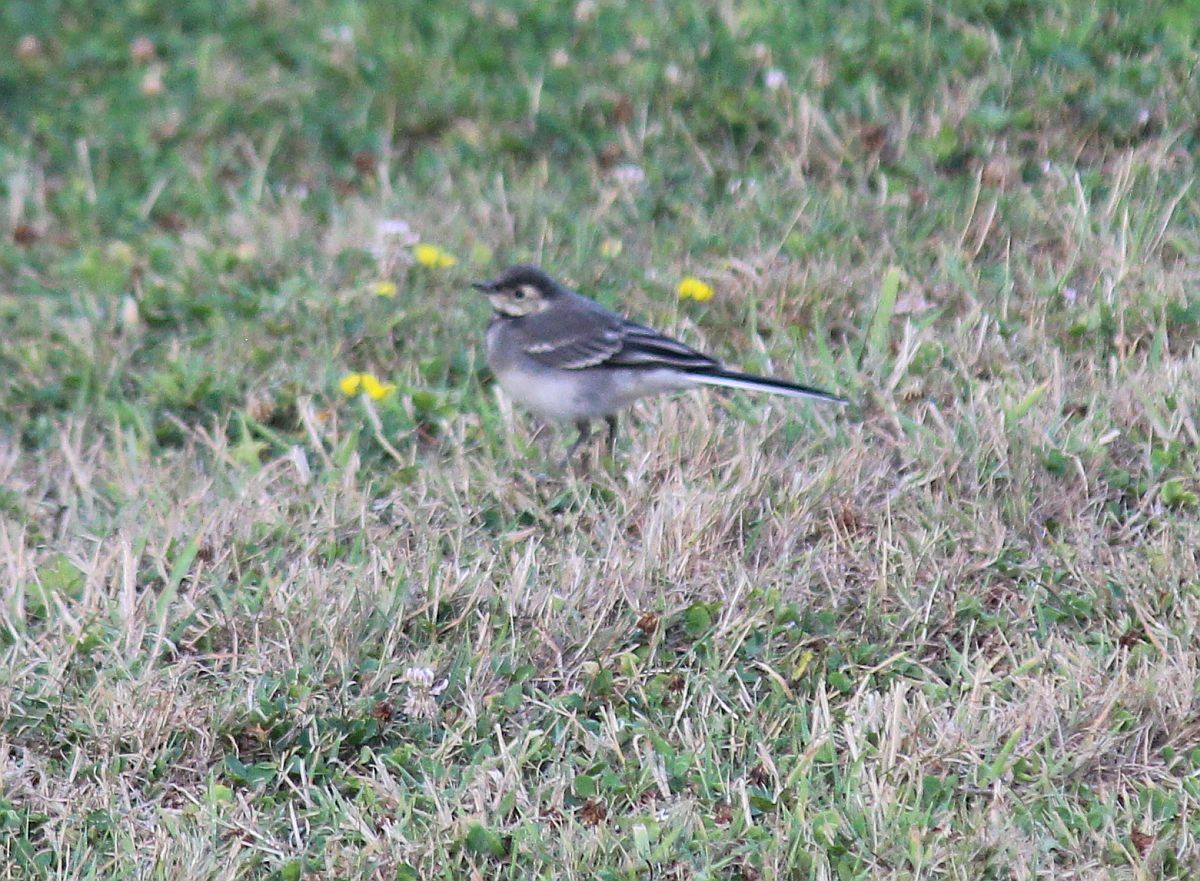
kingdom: Animalia
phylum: Chordata
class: Aves
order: Passeriformes
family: Motacillidae
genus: Motacilla
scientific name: Motacilla alba
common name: White wagtail
